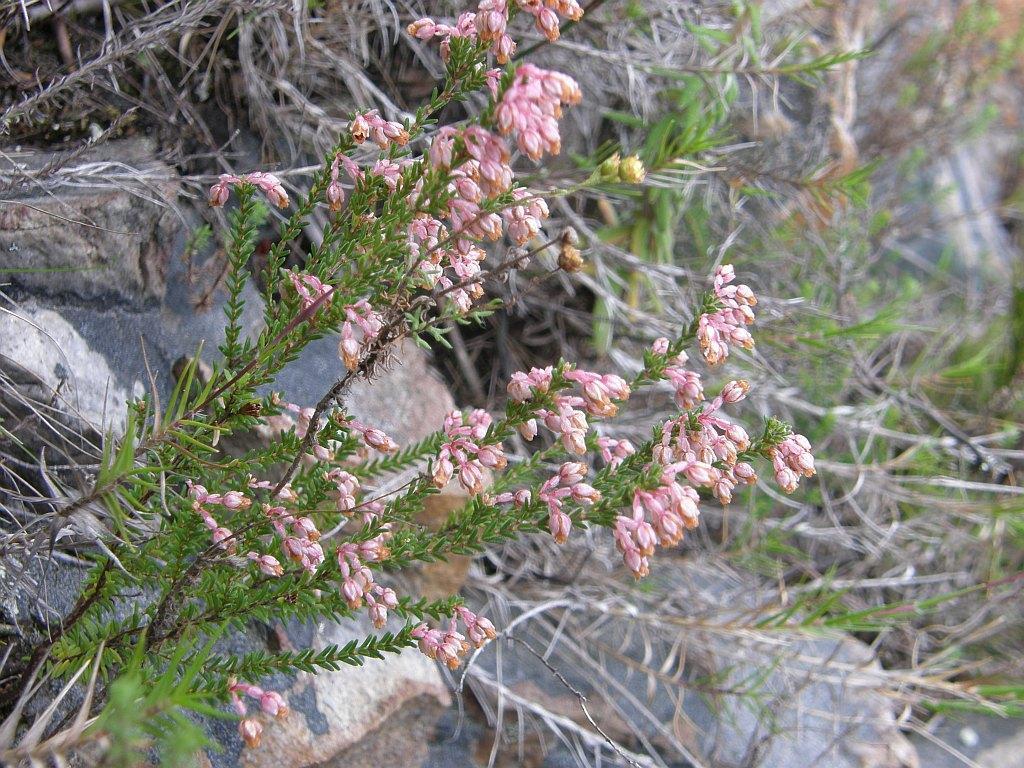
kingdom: Plantae
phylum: Tracheophyta
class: Magnoliopsida
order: Ericales
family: Ericaceae
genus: Erica
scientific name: Erica brevifolia
